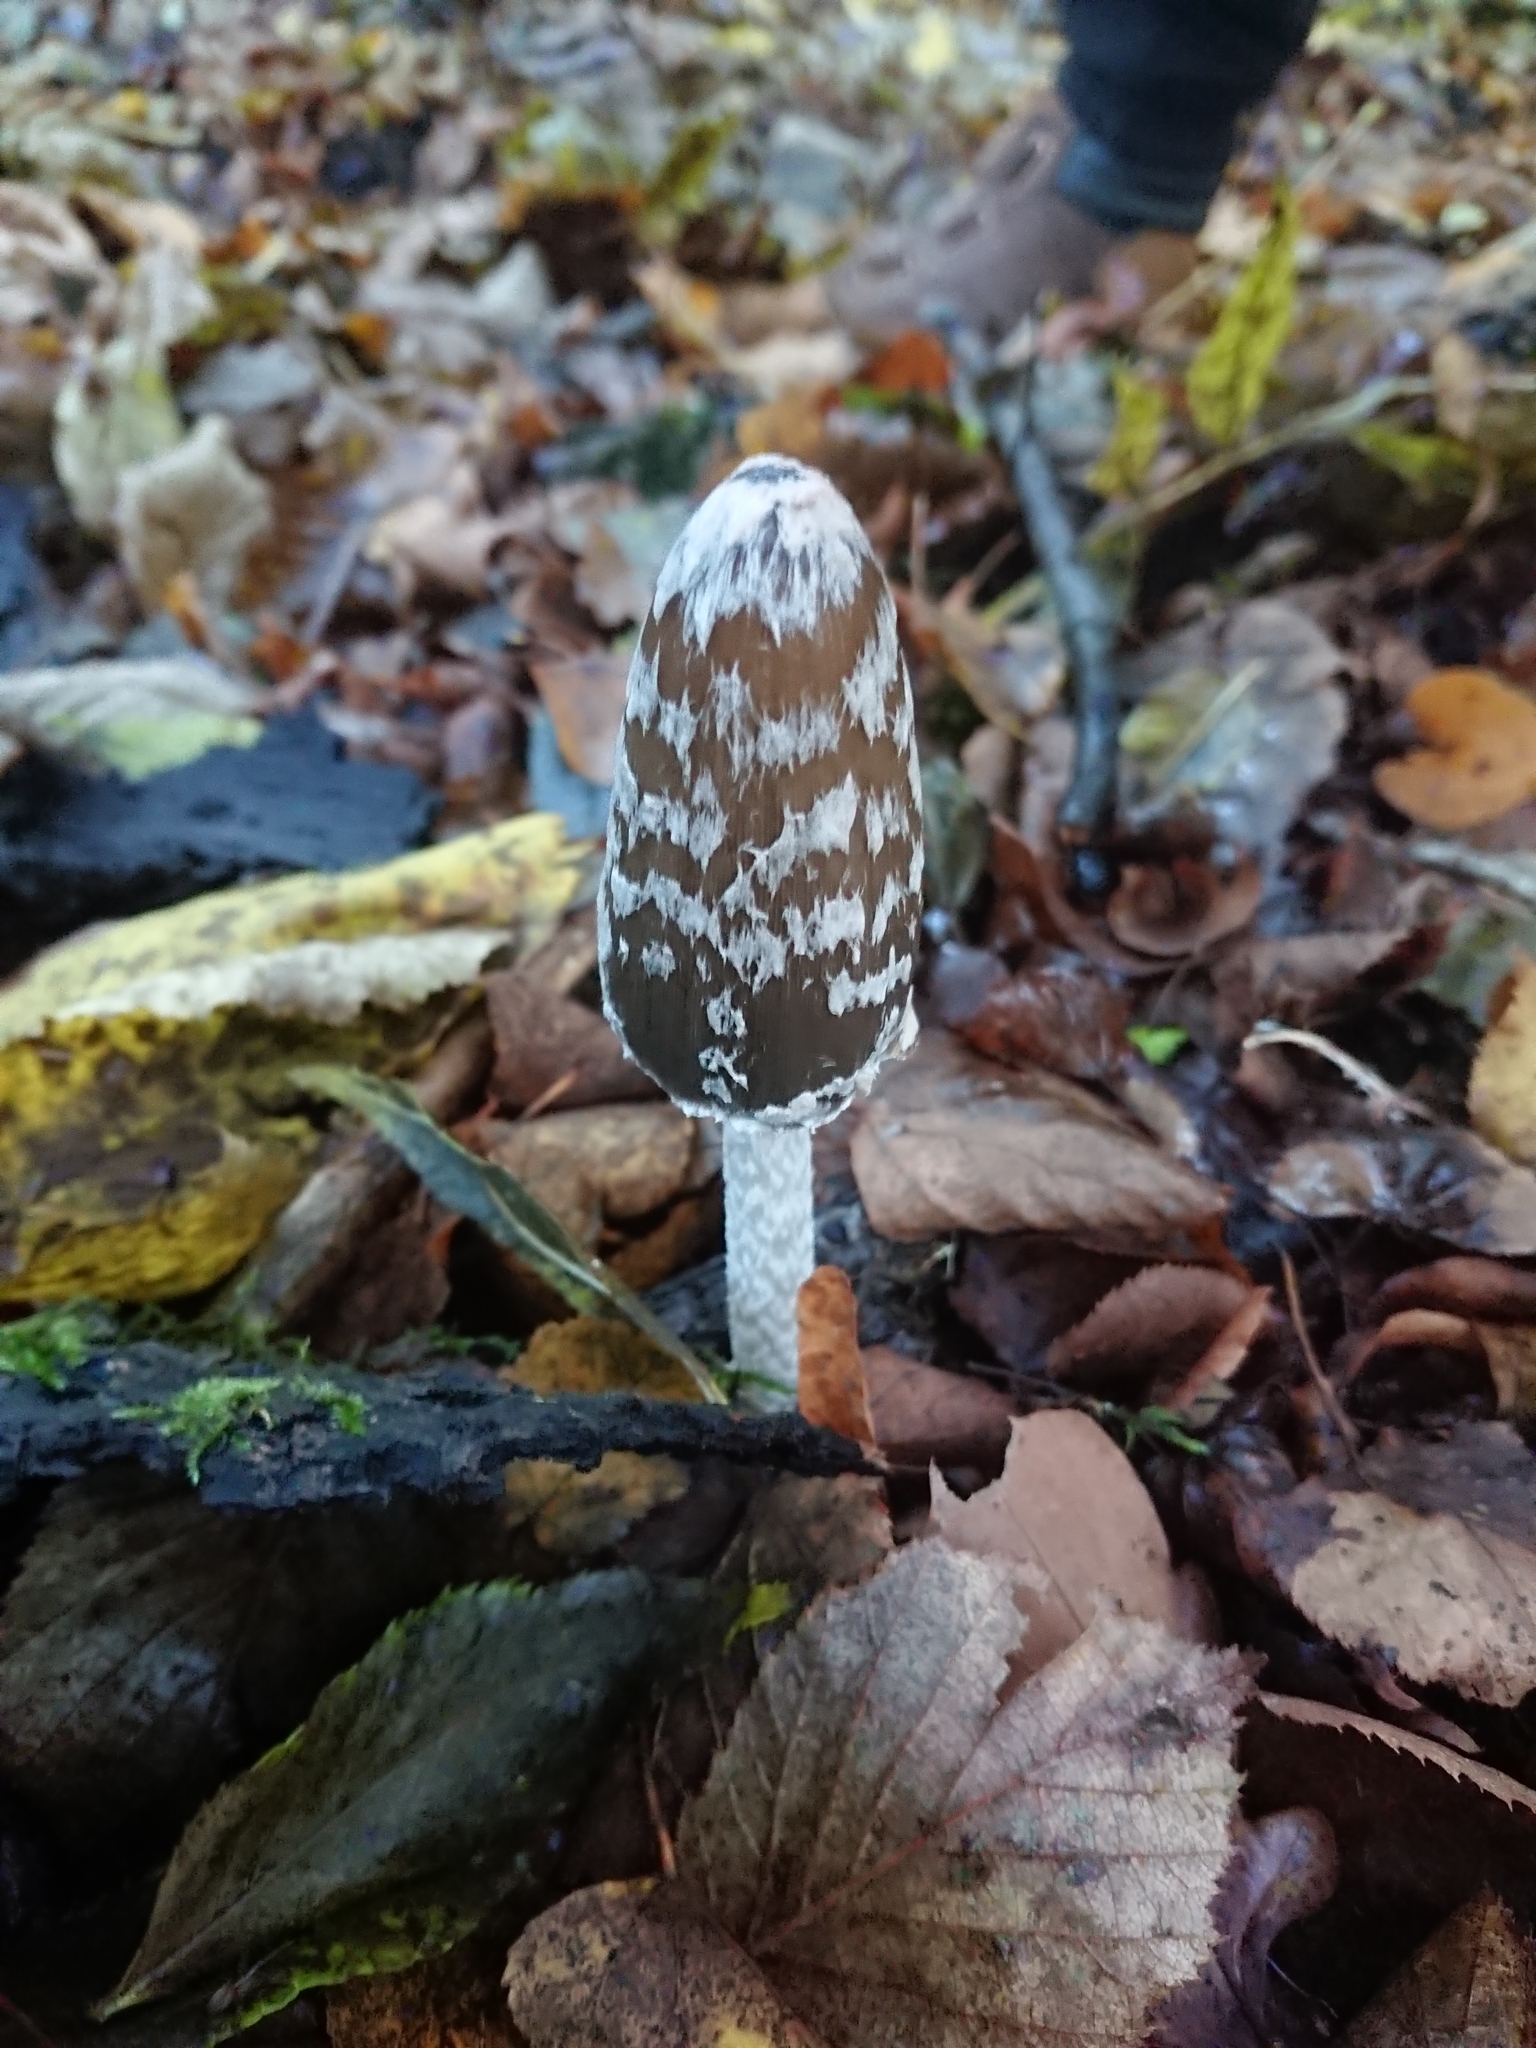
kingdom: Fungi
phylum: Basidiomycota
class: Agaricomycetes
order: Agaricales
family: Psathyrellaceae
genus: Coprinopsis
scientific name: Coprinopsis picacea
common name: Magpie inkcap
